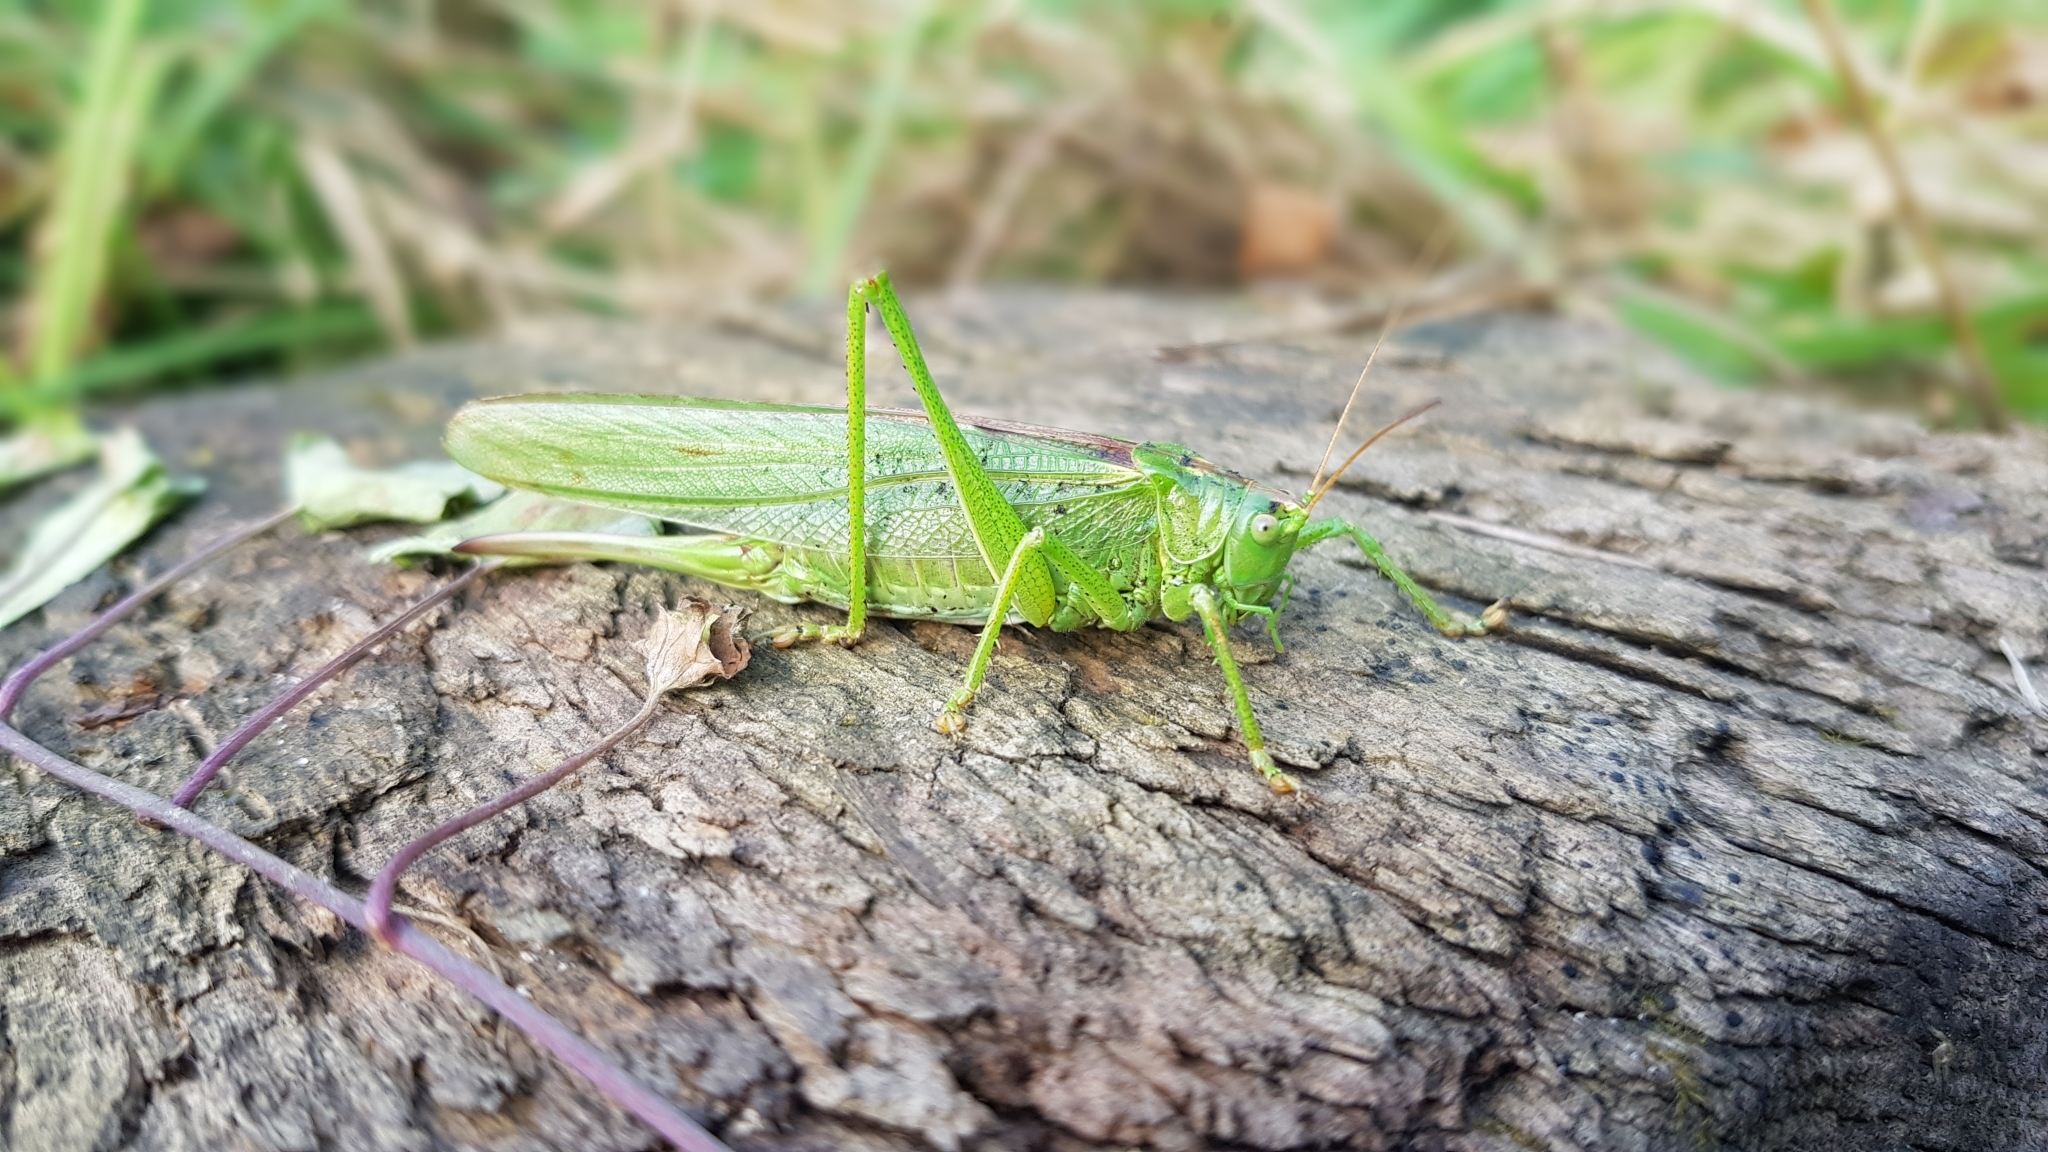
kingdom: Animalia
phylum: Arthropoda
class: Insecta
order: Orthoptera
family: Tettigoniidae
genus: Tettigonia
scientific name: Tettigonia viridissima
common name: Great green bush-cricket
